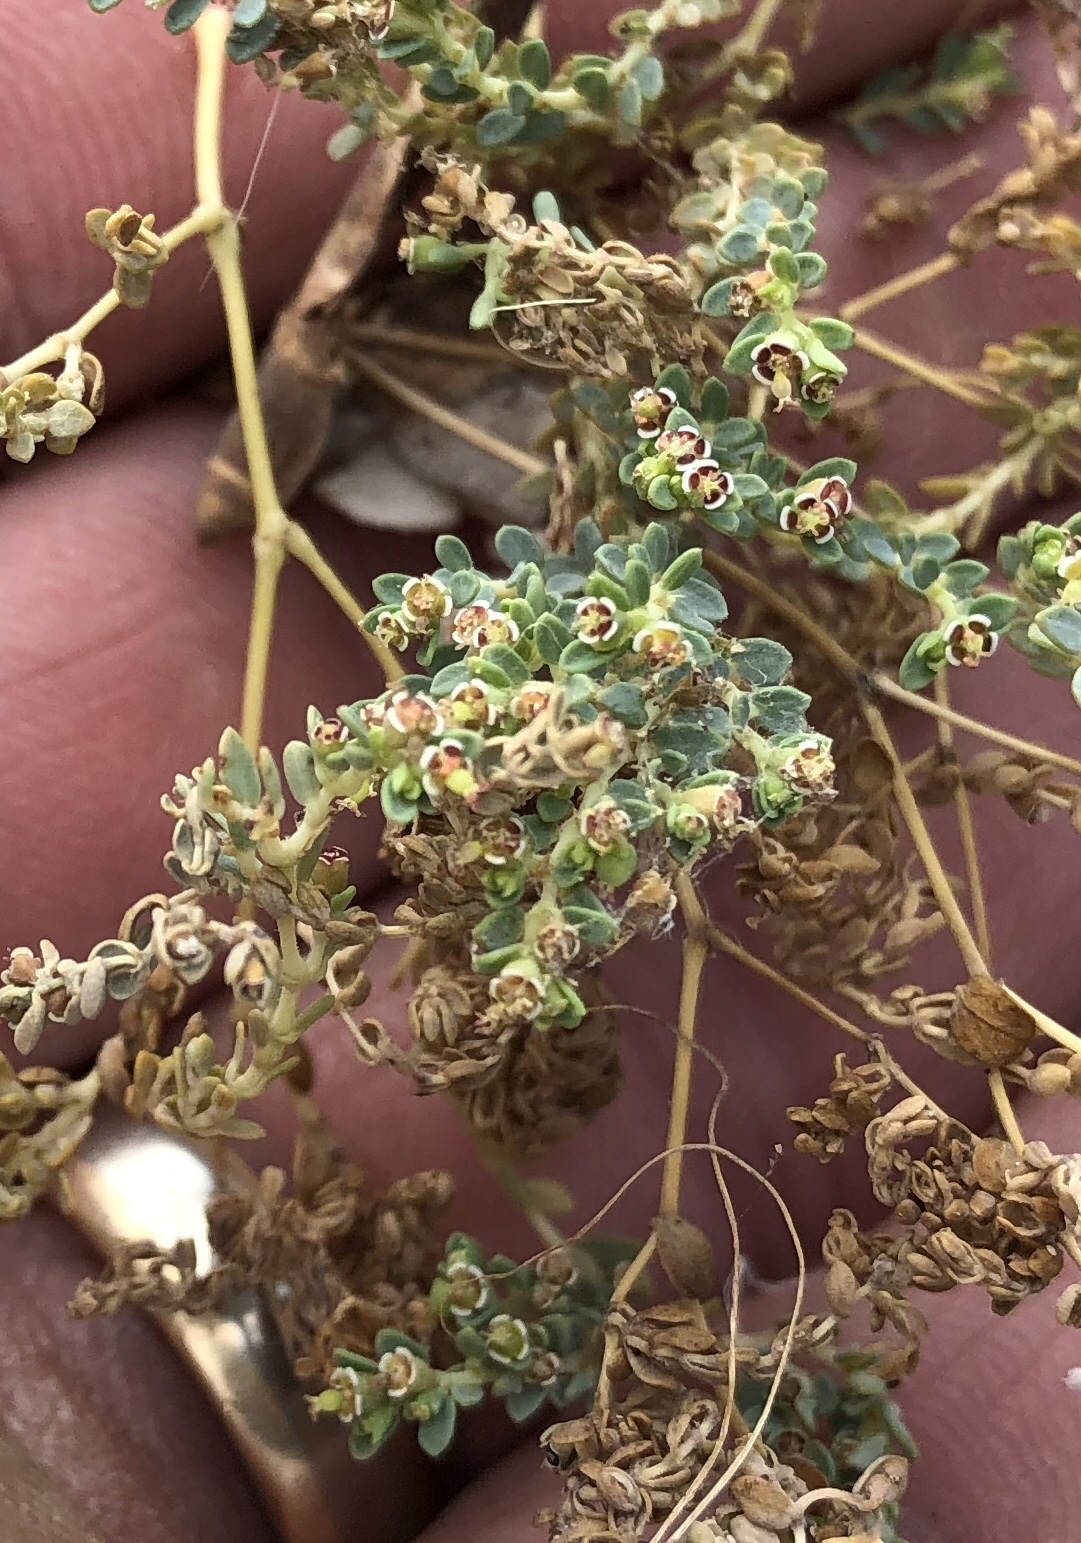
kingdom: Plantae
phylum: Tracheophyta
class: Magnoliopsida
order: Malpighiales
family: Euphorbiaceae
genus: Euphorbia
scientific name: Euphorbia polycarpa
